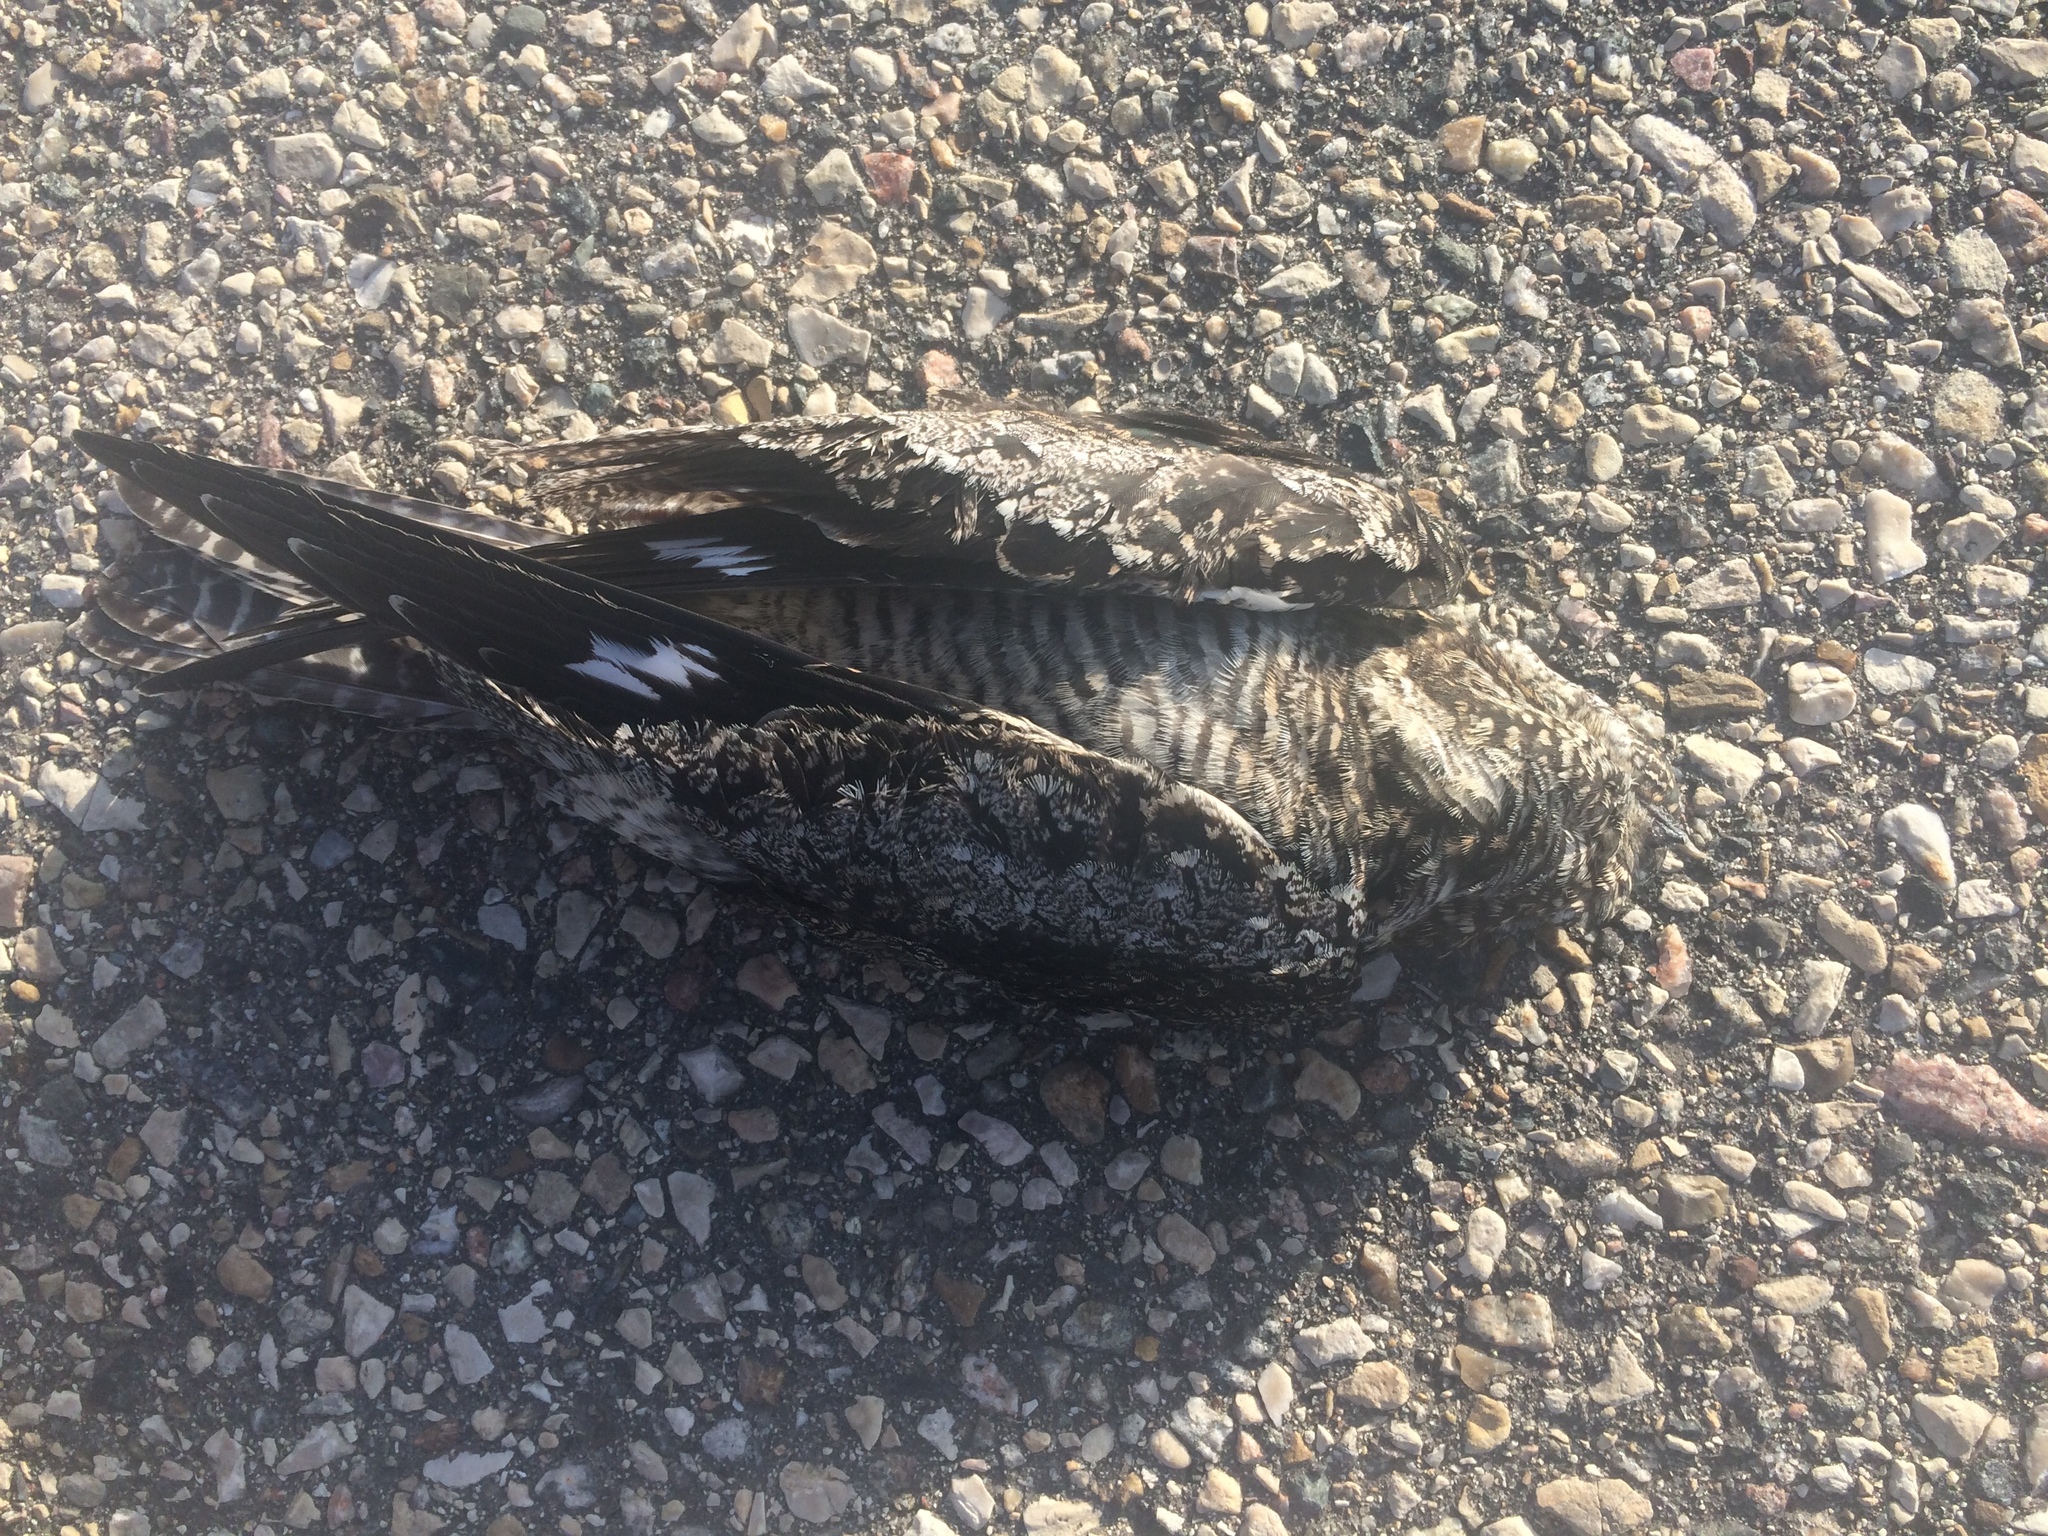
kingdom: Animalia
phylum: Chordata
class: Aves
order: Caprimulgiformes
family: Caprimulgidae
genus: Chordeiles
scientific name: Chordeiles minor
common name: Common nighthawk
